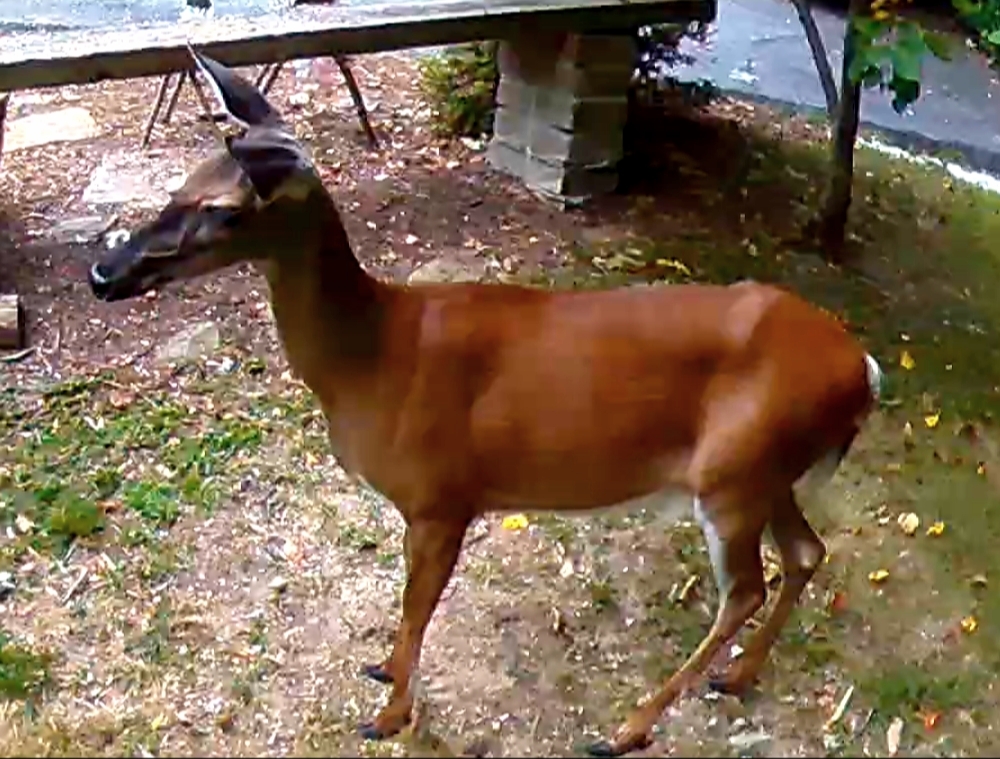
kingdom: Animalia
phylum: Chordata
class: Mammalia
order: Artiodactyla
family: Cervidae
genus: Odocoileus
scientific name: Odocoileus virginianus
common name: White-tailed deer
